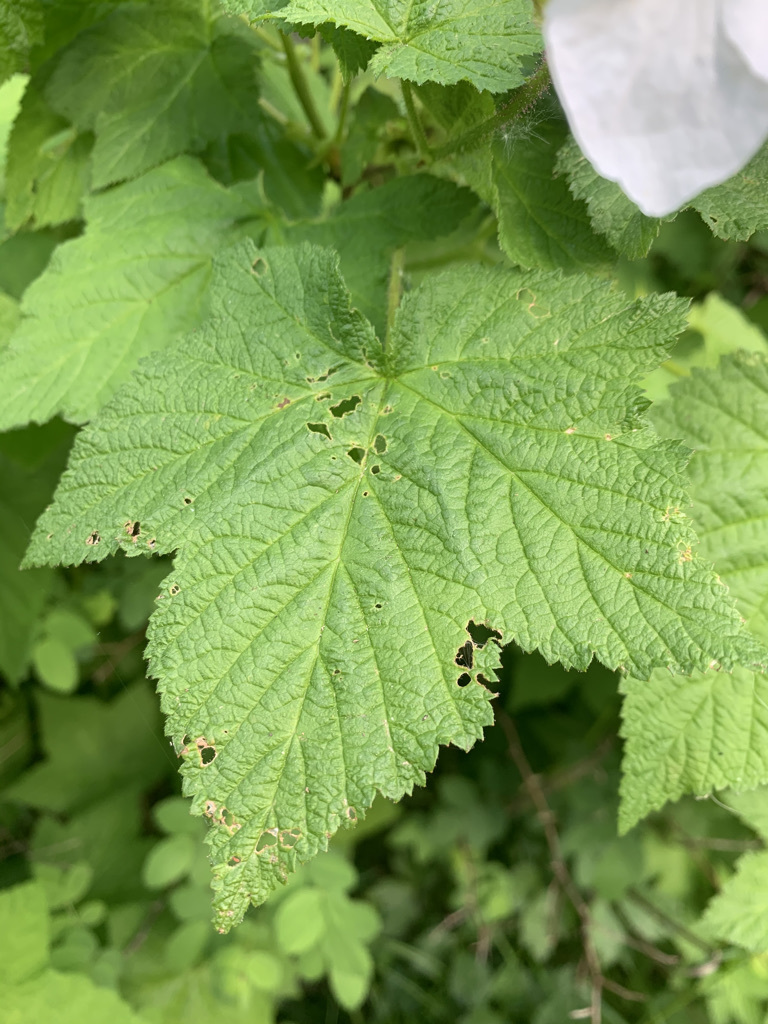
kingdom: Plantae
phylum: Tracheophyta
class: Magnoliopsida
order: Rosales
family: Rosaceae
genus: Rubus
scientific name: Rubus parviflorus
